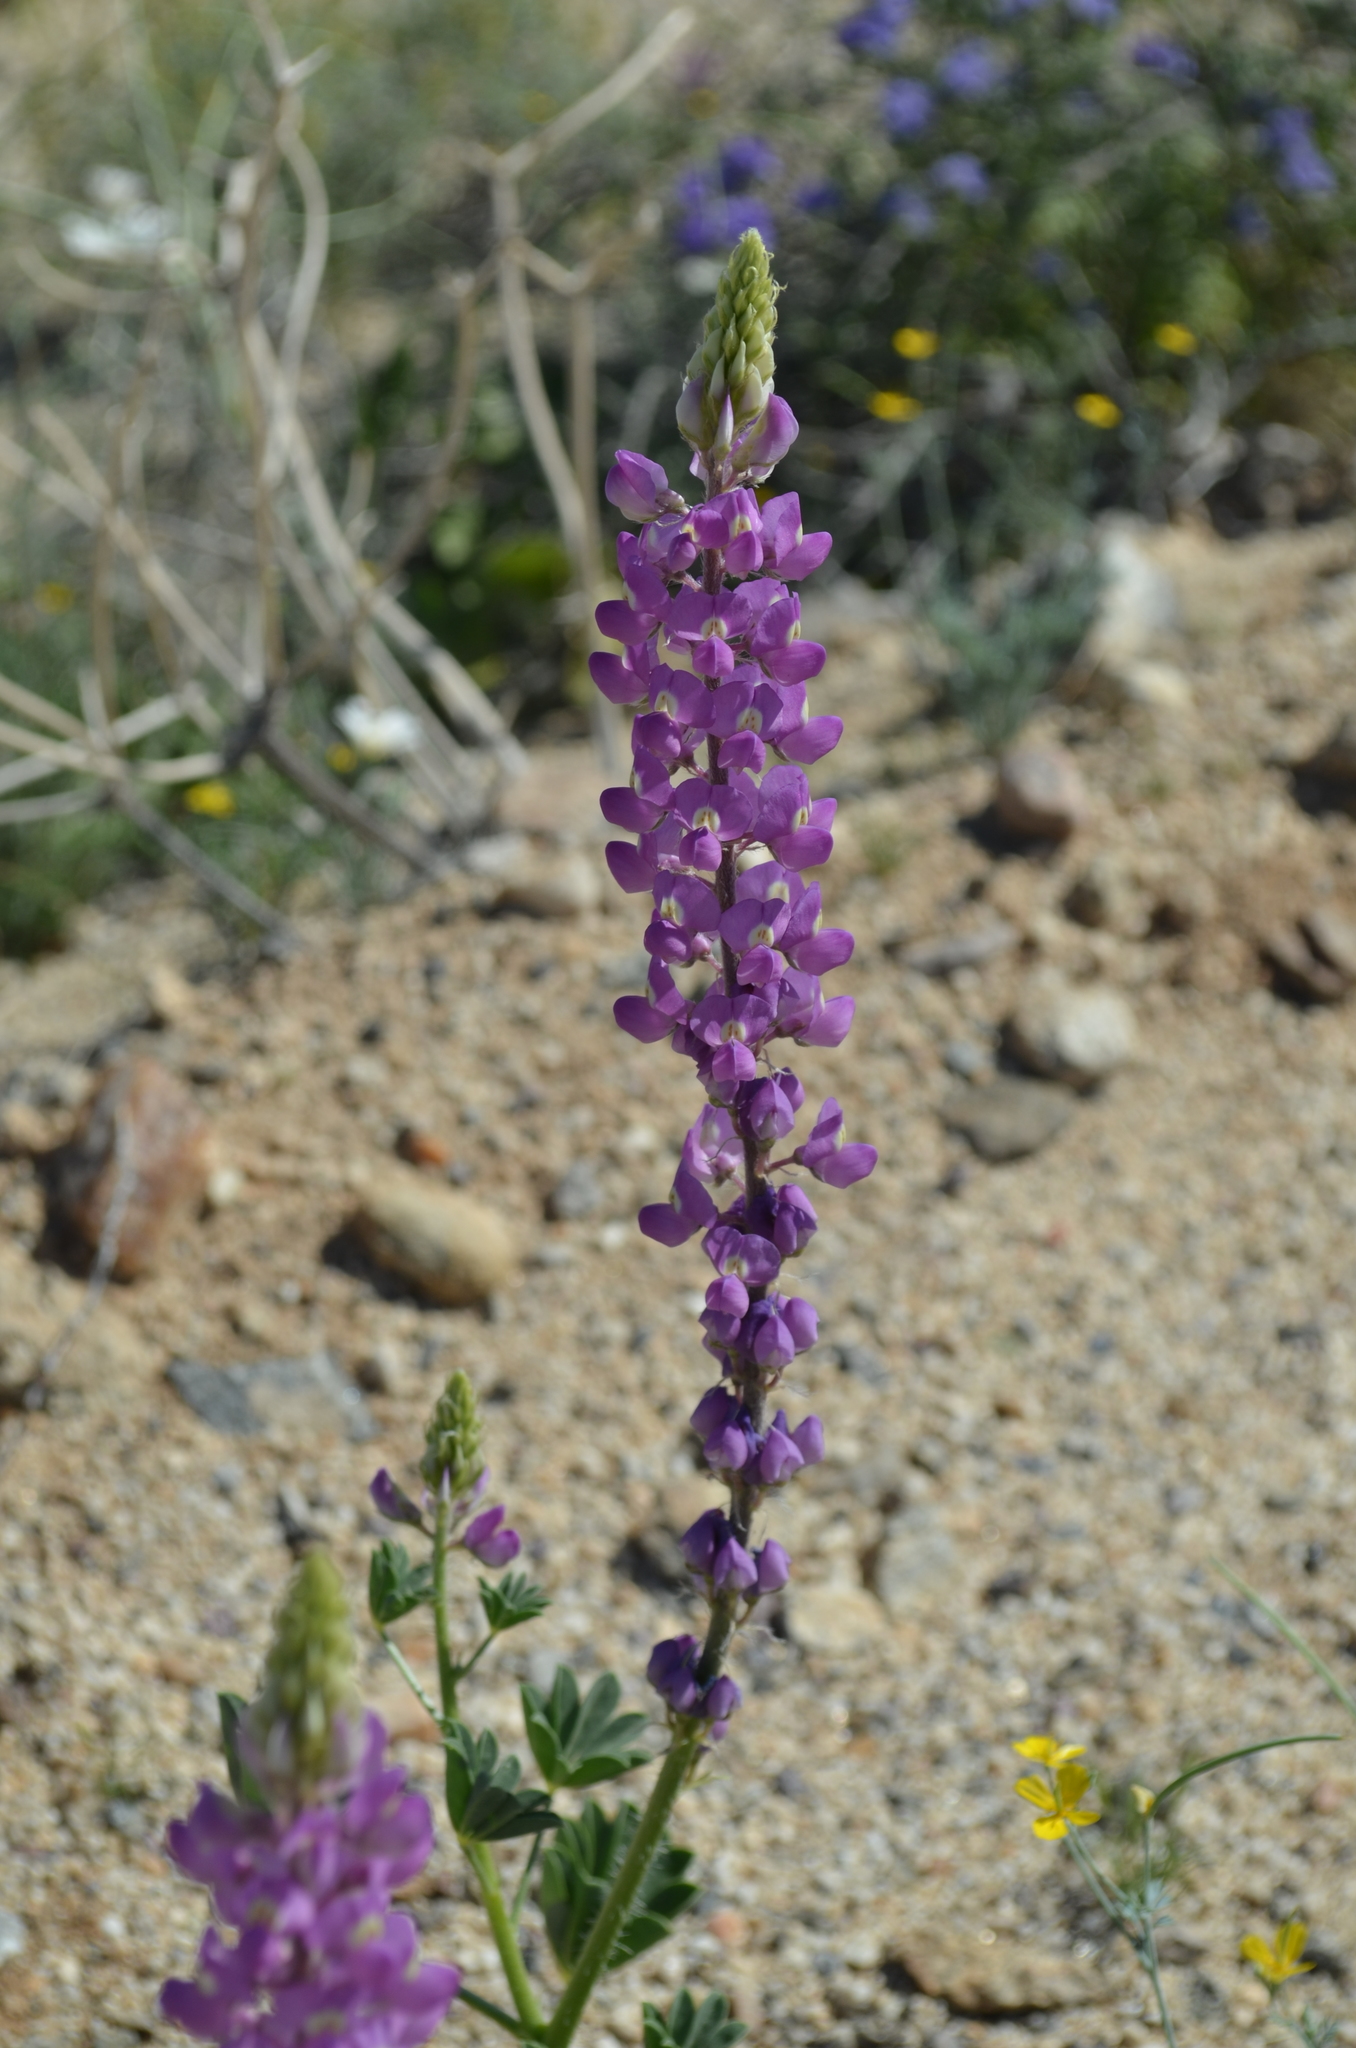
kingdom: Plantae
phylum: Tracheophyta
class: Magnoliopsida
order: Fabales
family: Fabaceae
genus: Lupinus
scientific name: Lupinus arizonicus
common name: Arizona lupine
